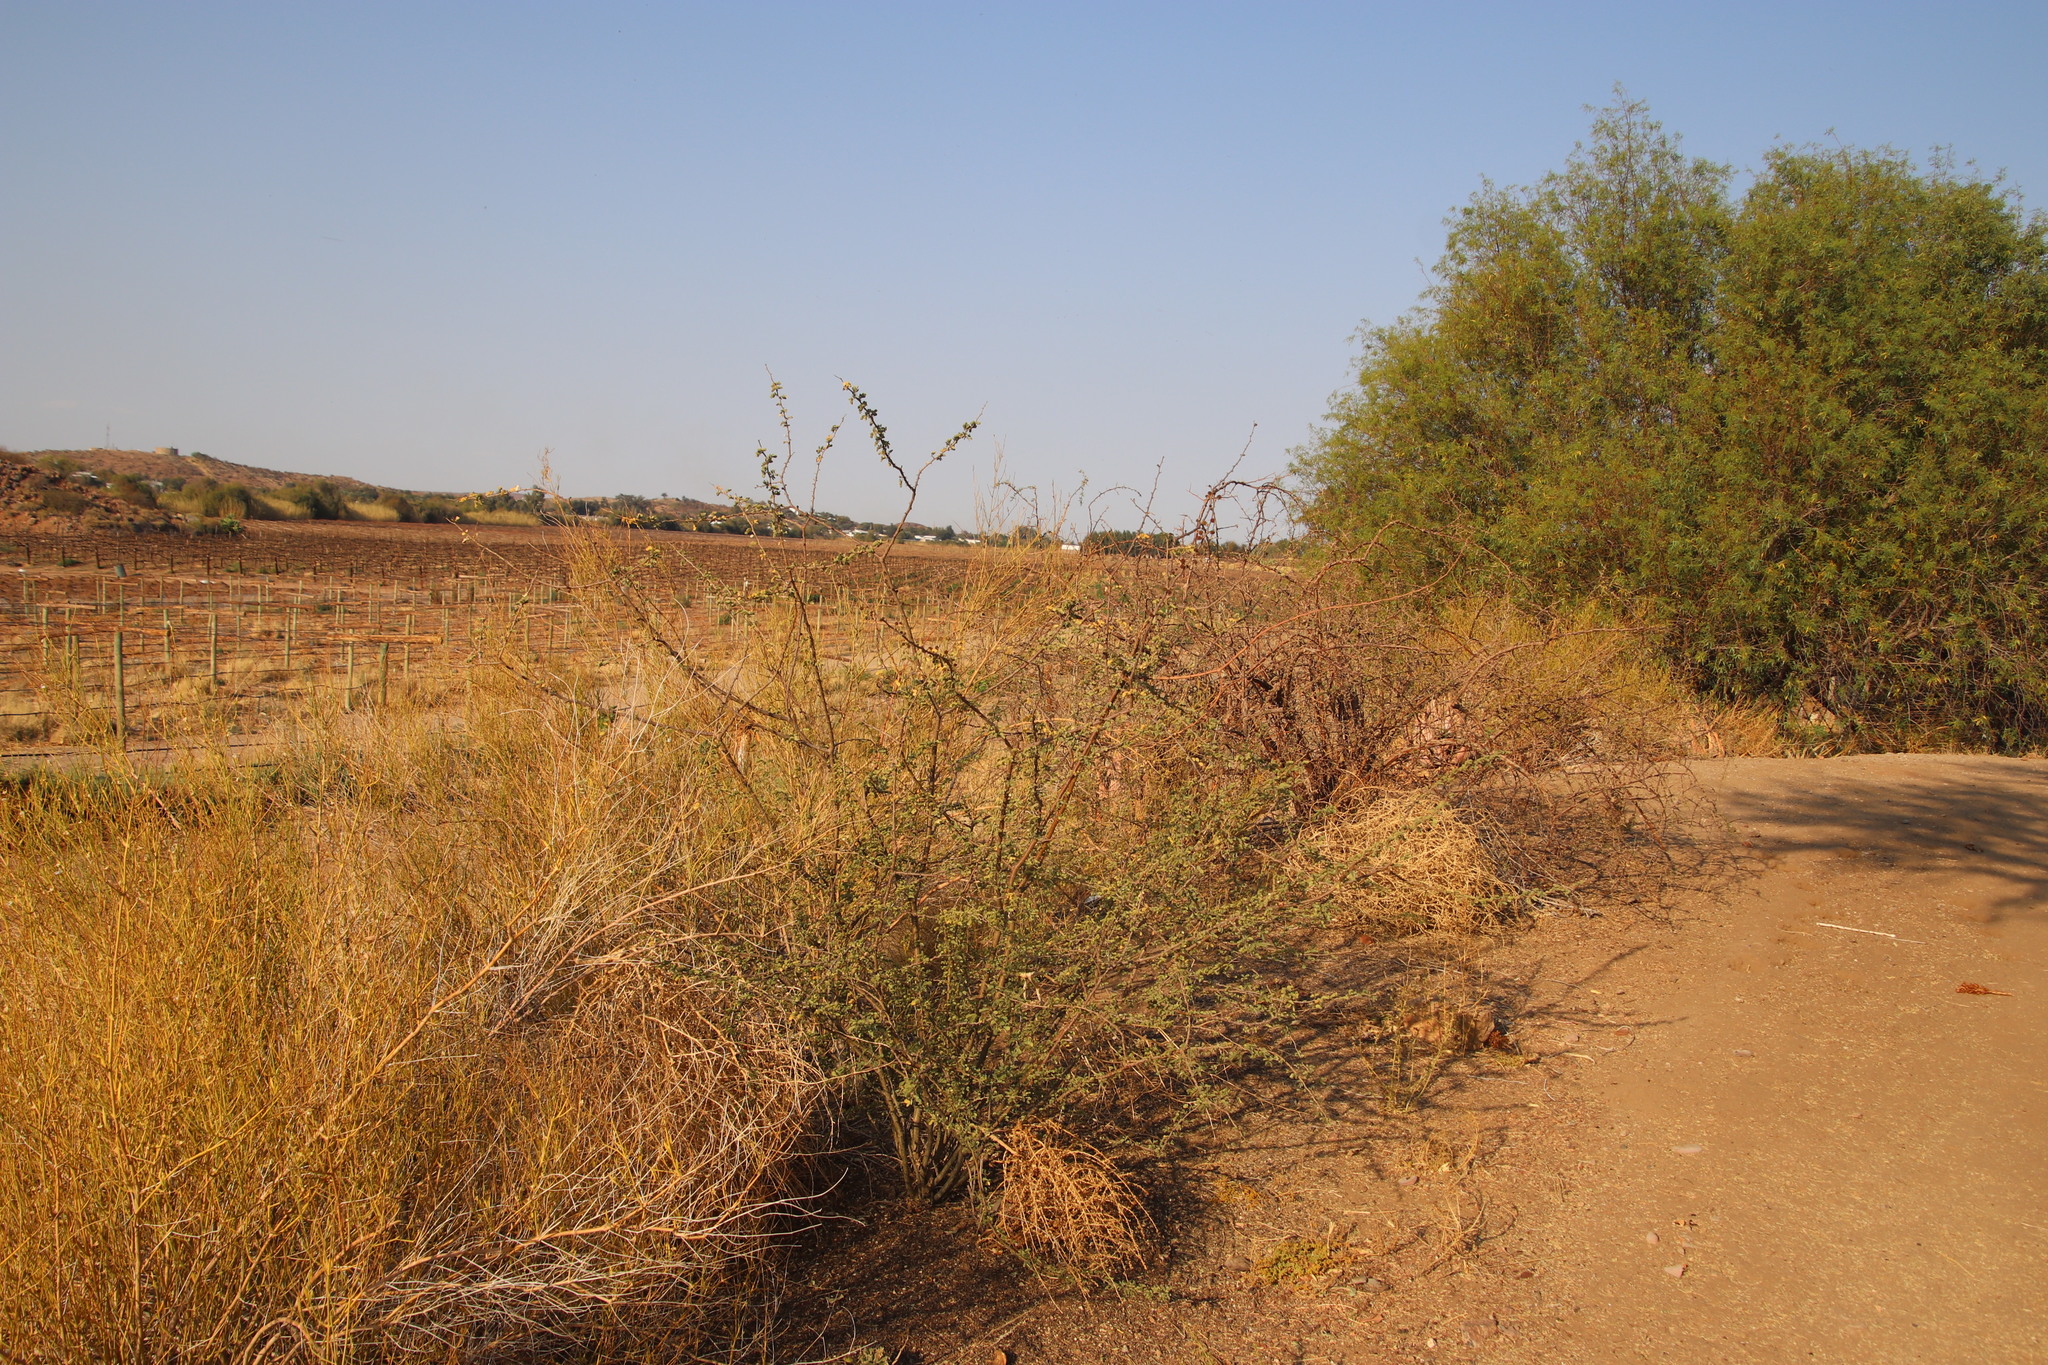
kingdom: Plantae
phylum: Tracheophyta
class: Magnoliopsida
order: Fabales
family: Fabaceae
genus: Senegalia
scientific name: Senegalia mellifera
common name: Hookthorn
